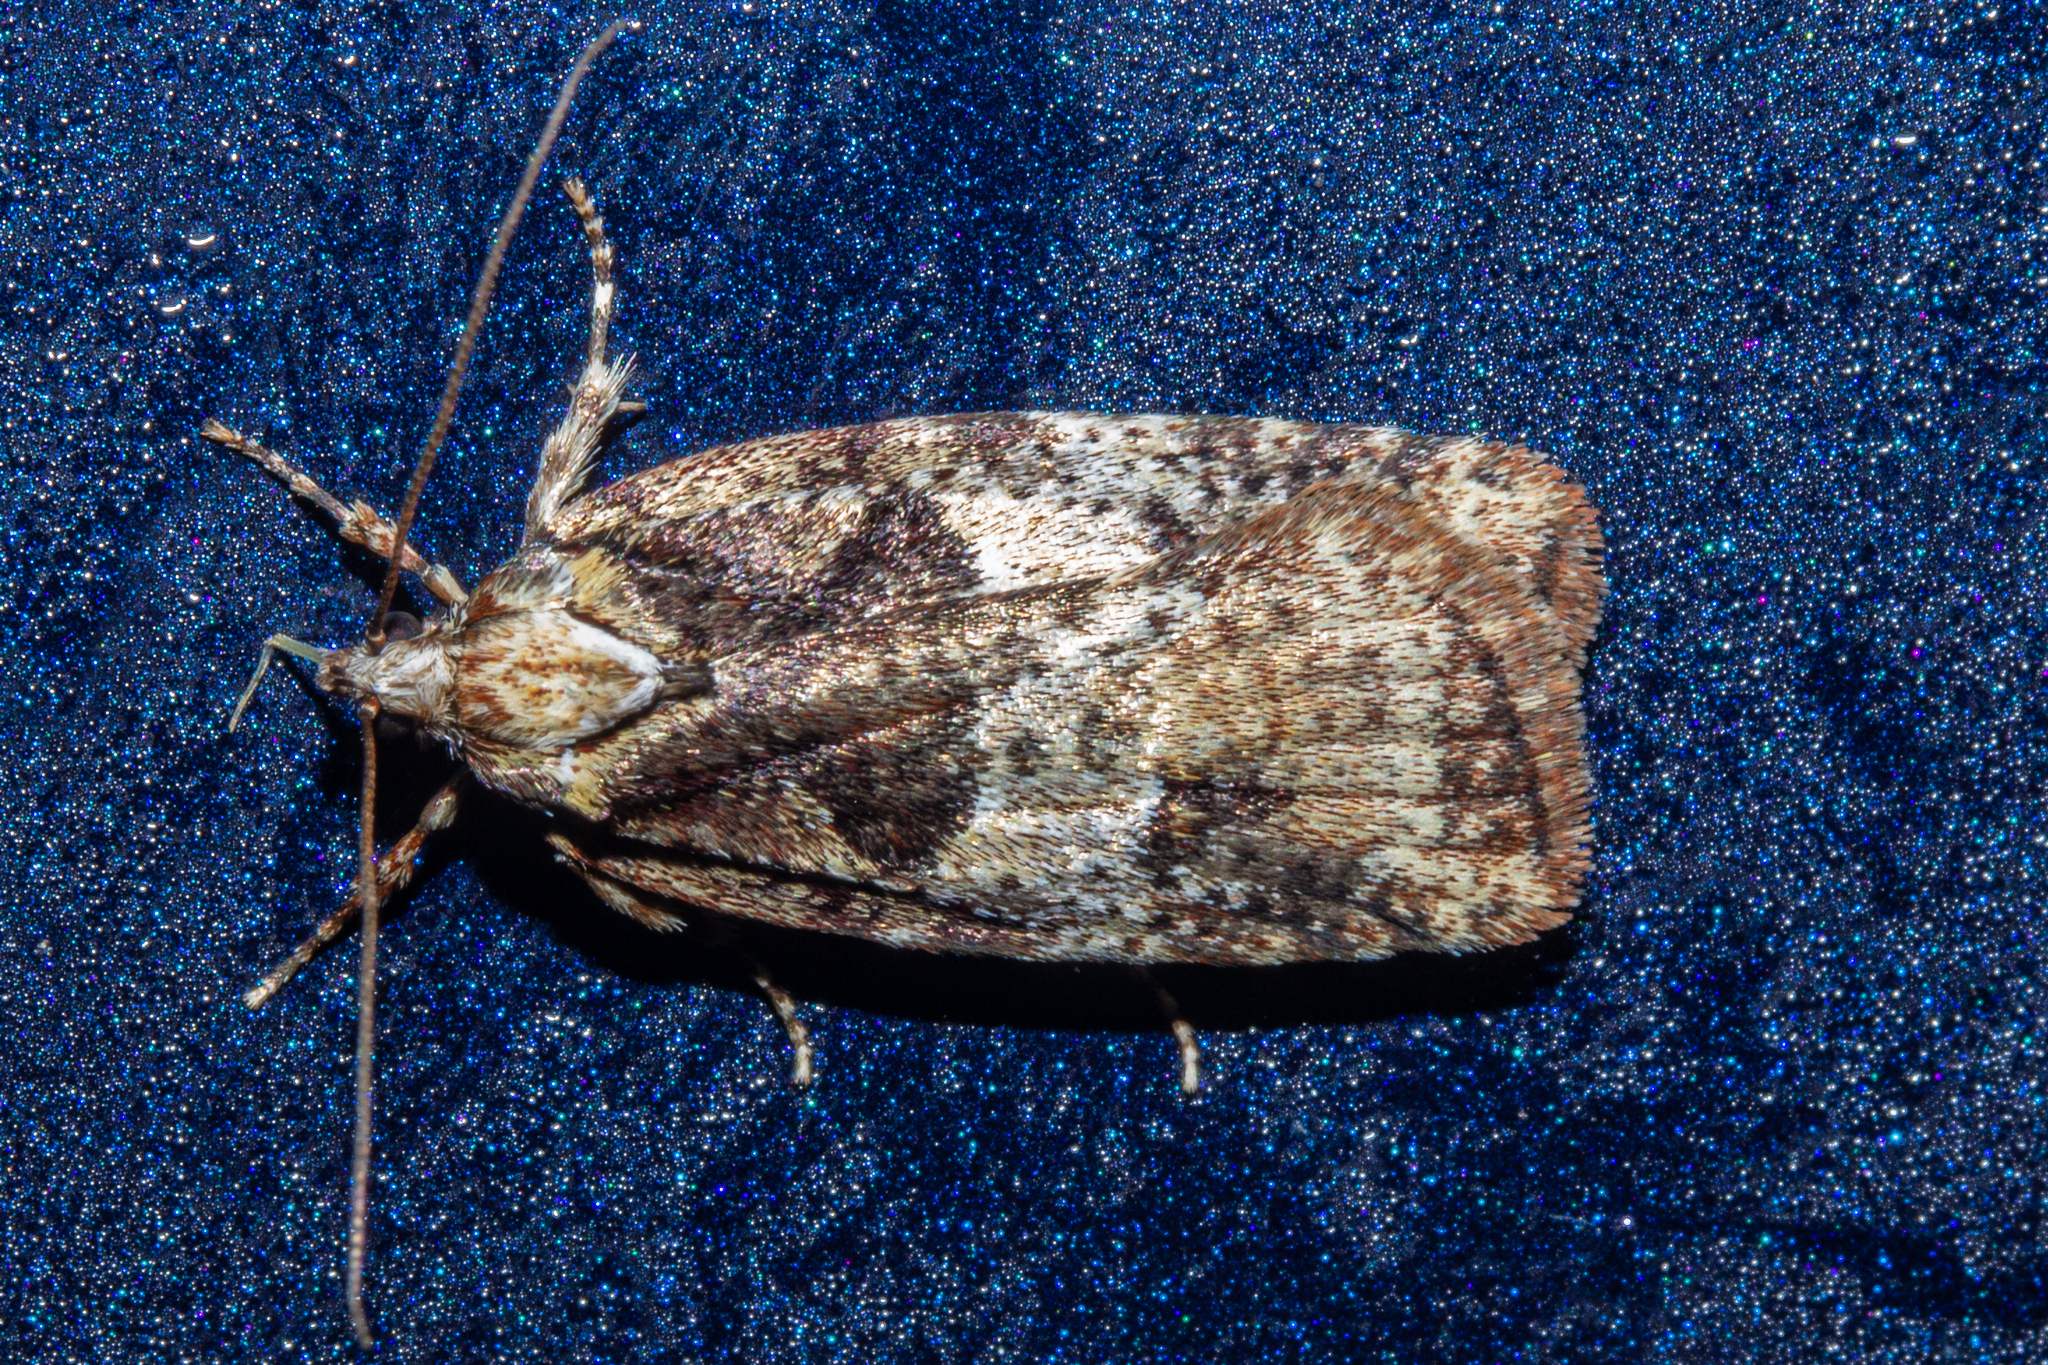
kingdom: Animalia
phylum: Arthropoda
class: Insecta
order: Lepidoptera
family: Oecophoridae
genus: Proteodes
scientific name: Proteodes profunda
